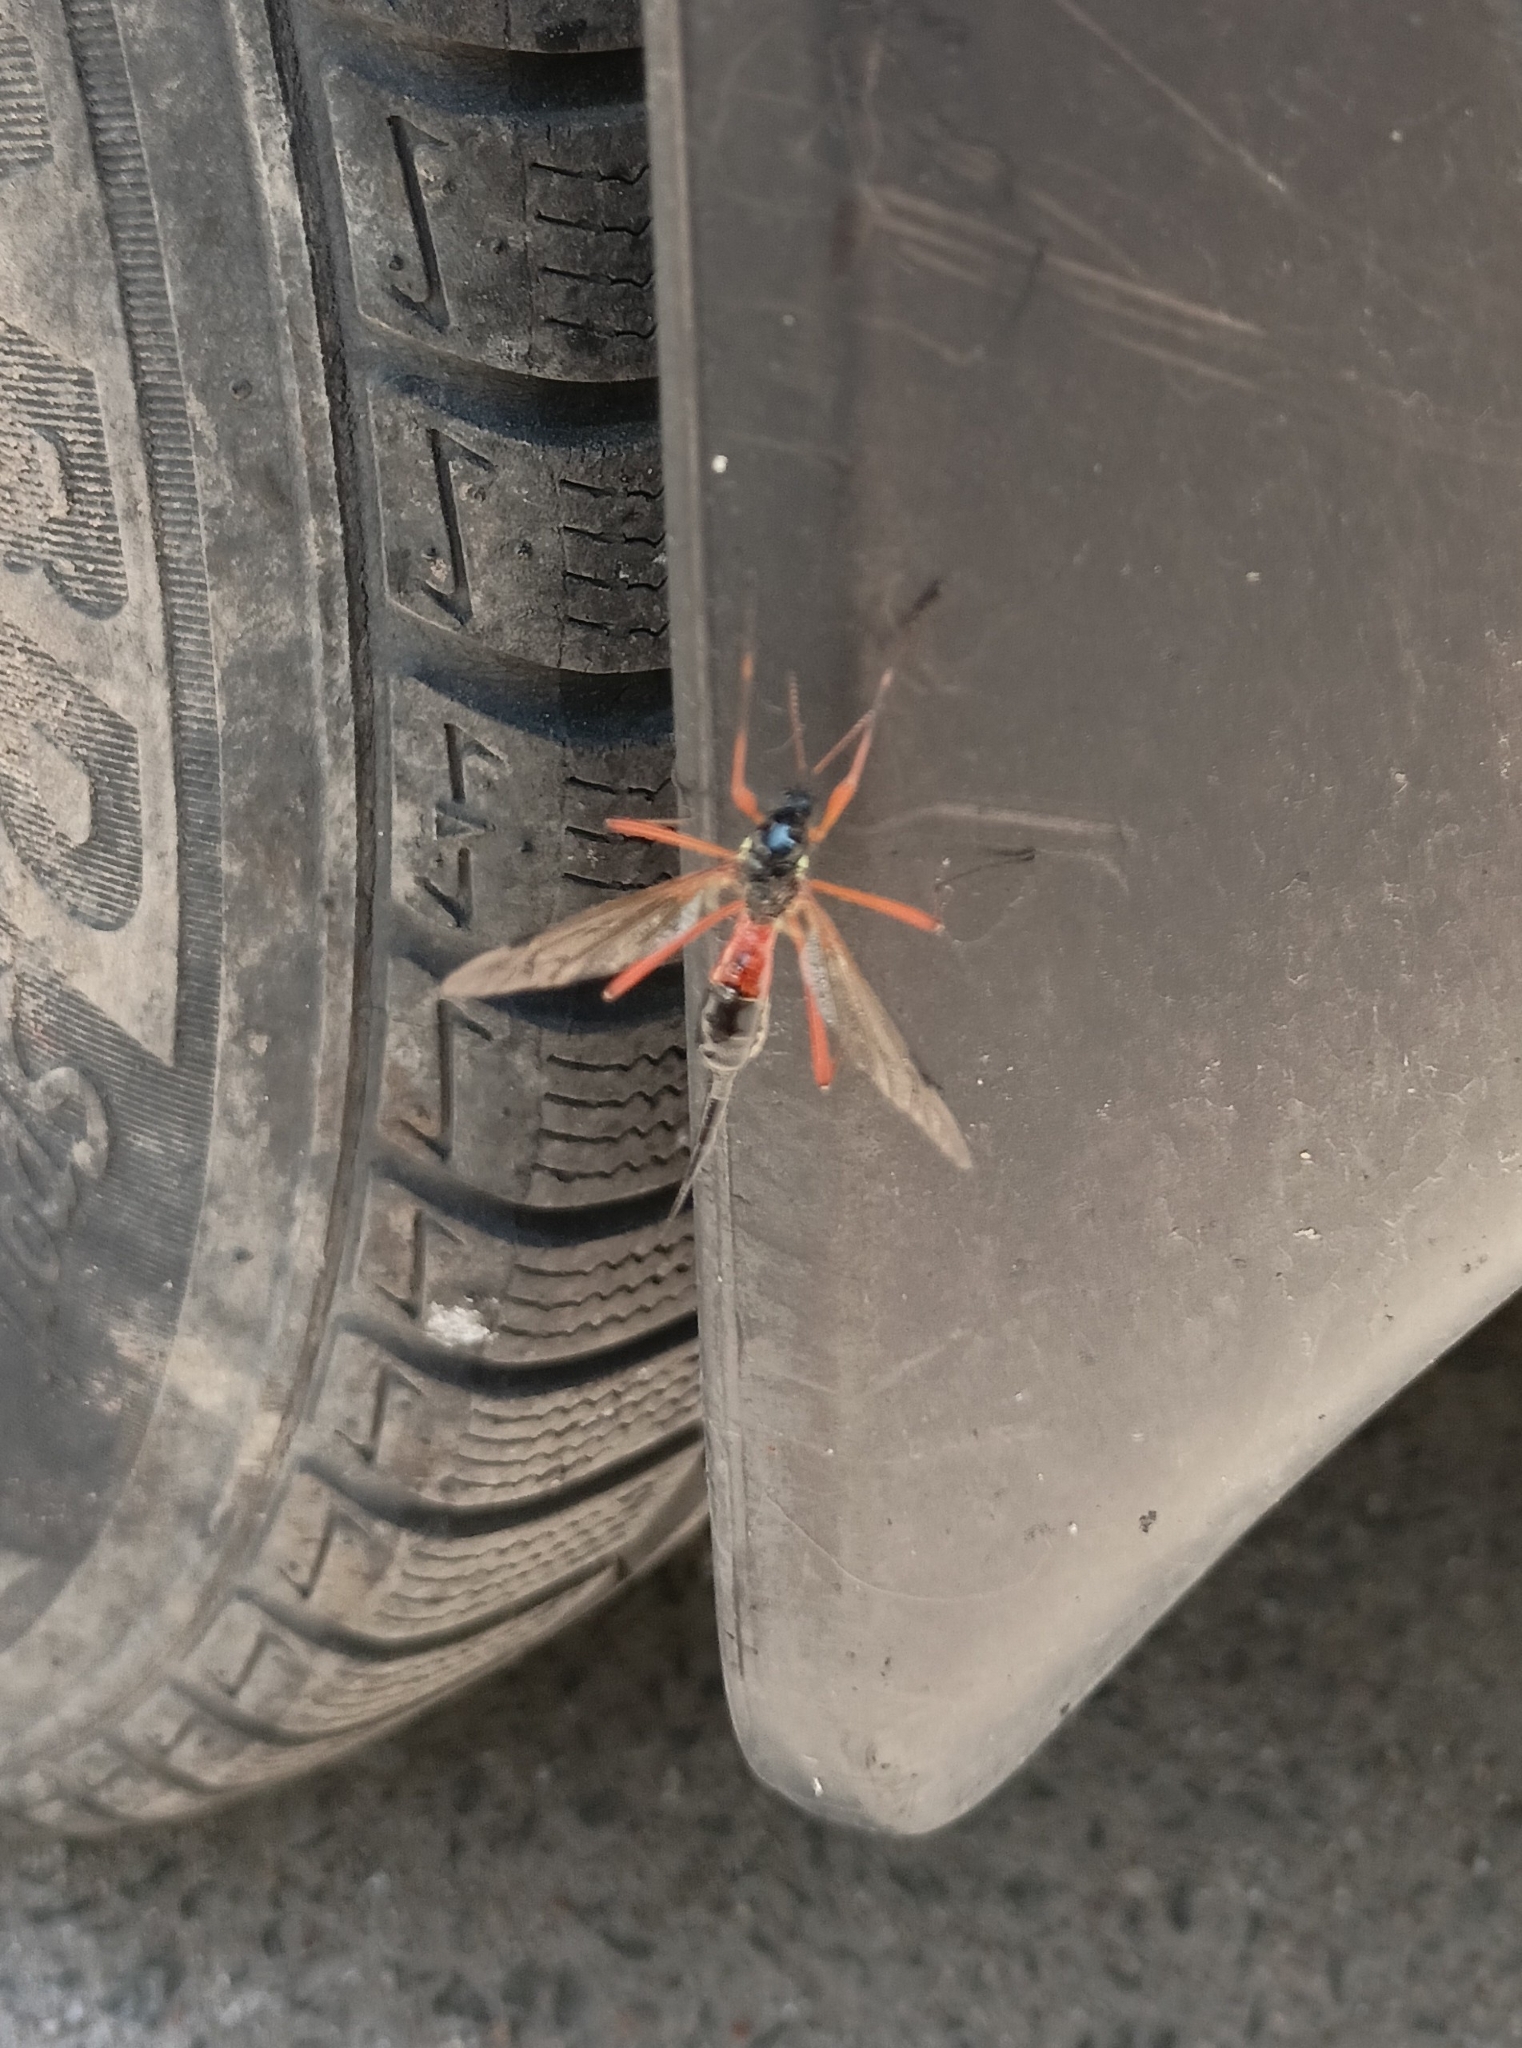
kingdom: Animalia
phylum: Arthropoda
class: Insecta
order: Diptera
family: Tipulidae
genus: Tanyptera
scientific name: Tanyptera atrata
